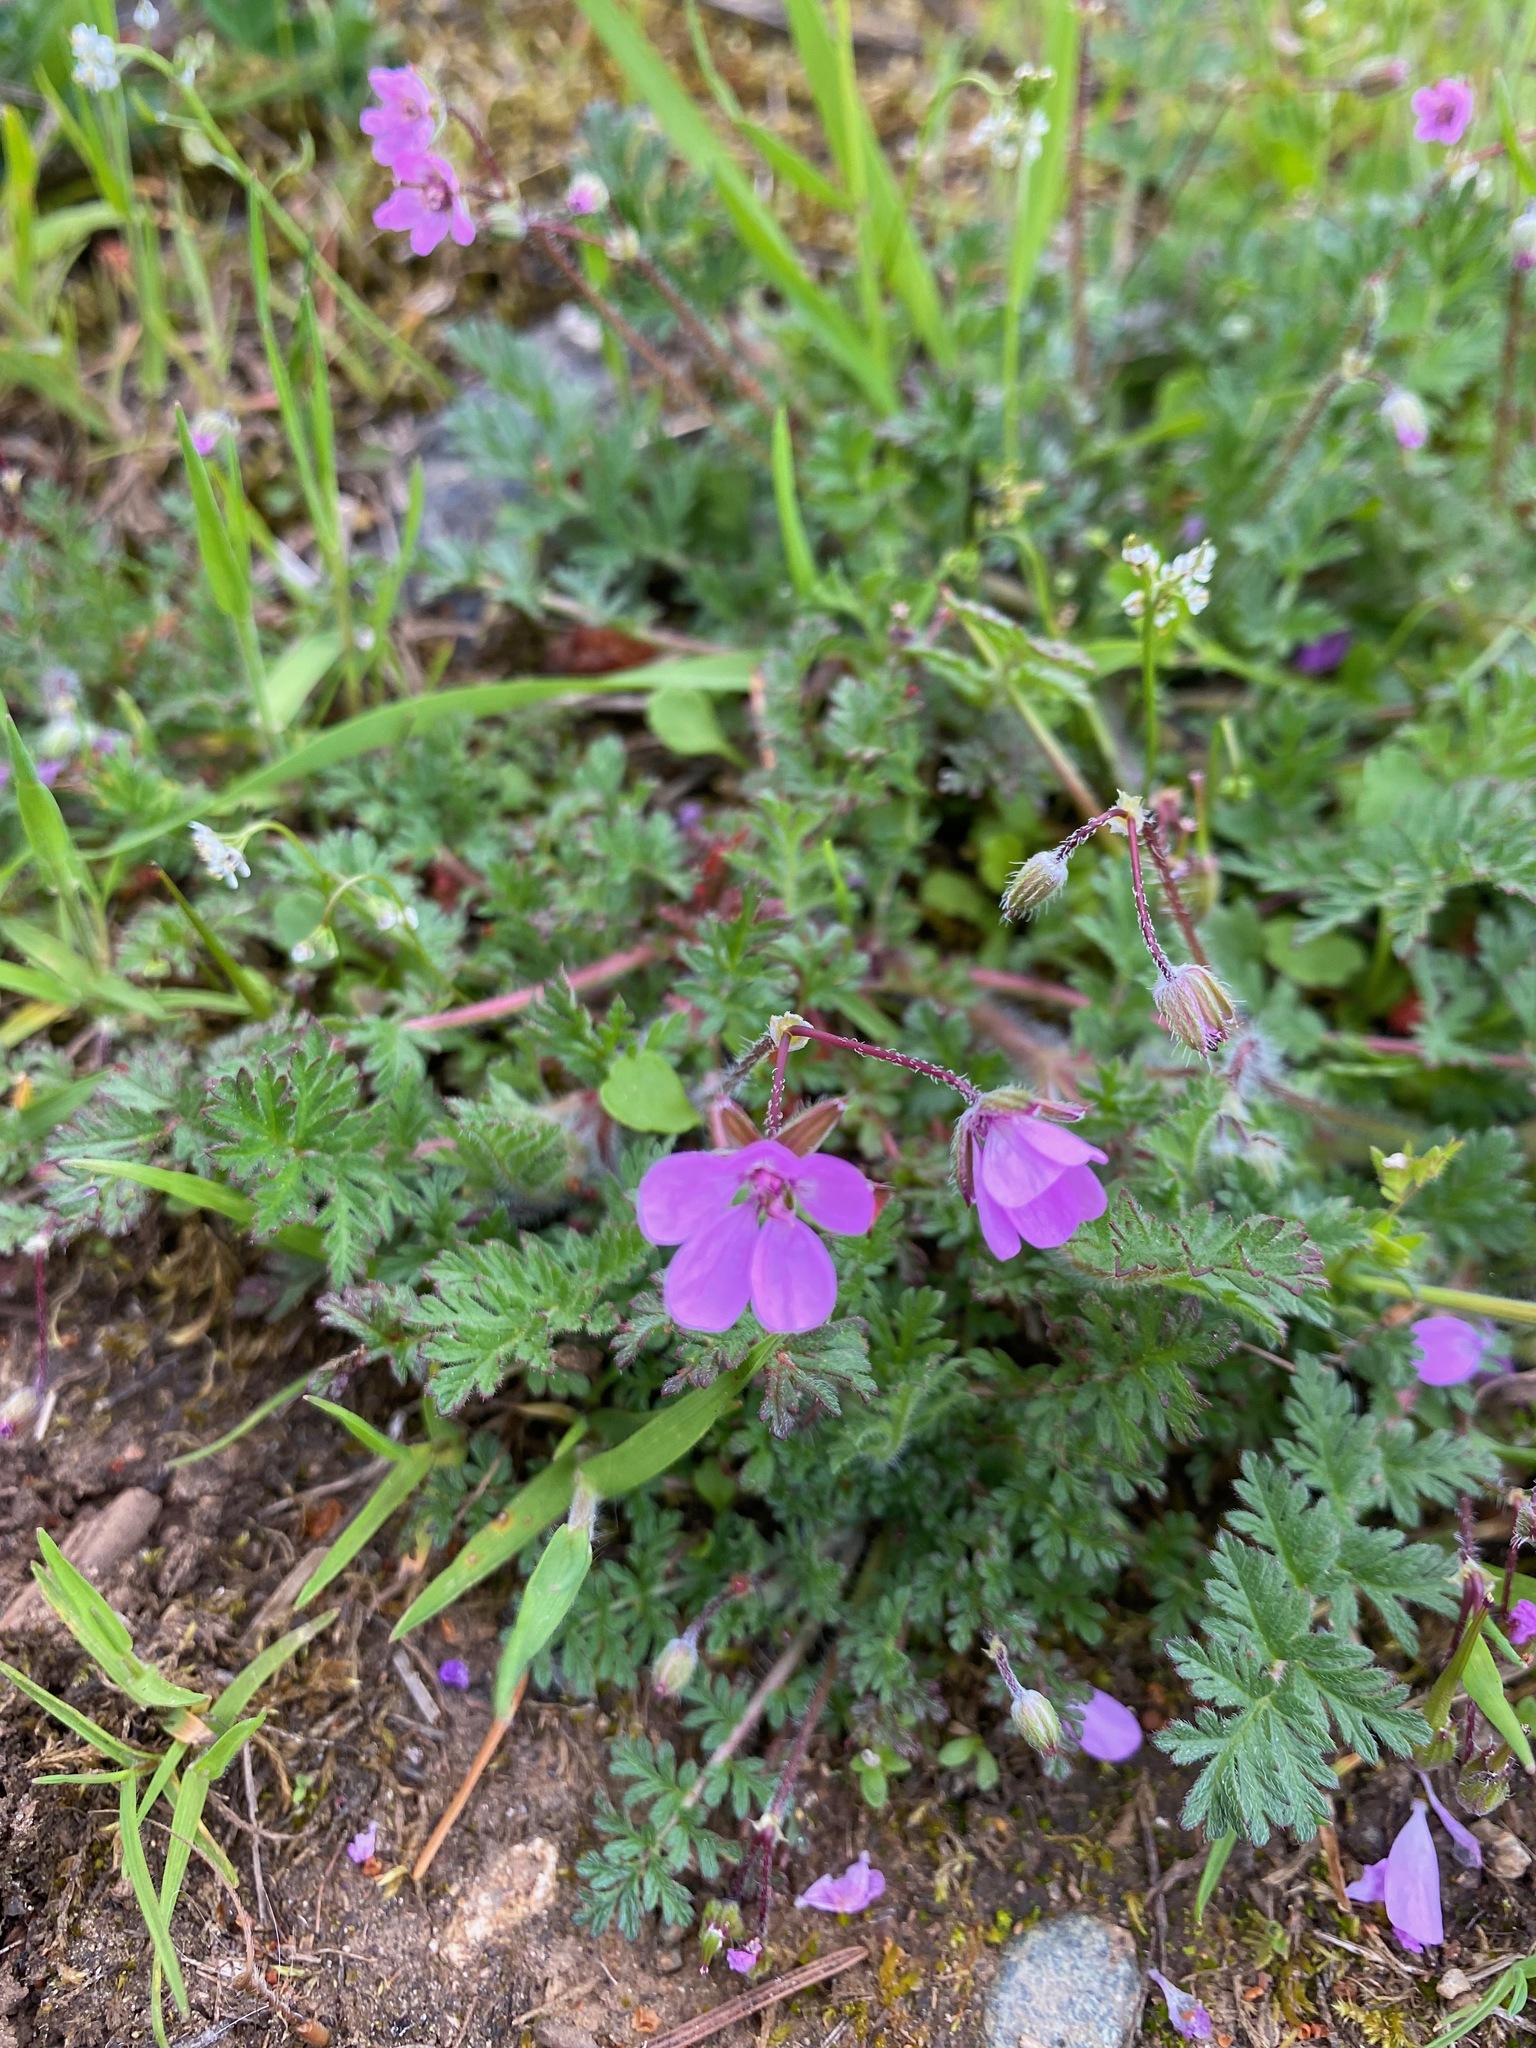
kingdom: Plantae
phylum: Tracheophyta
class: Magnoliopsida
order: Geraniales
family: Geraniaceae
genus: Erodium
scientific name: Erodium cicutarium
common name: Common stork's-bill
